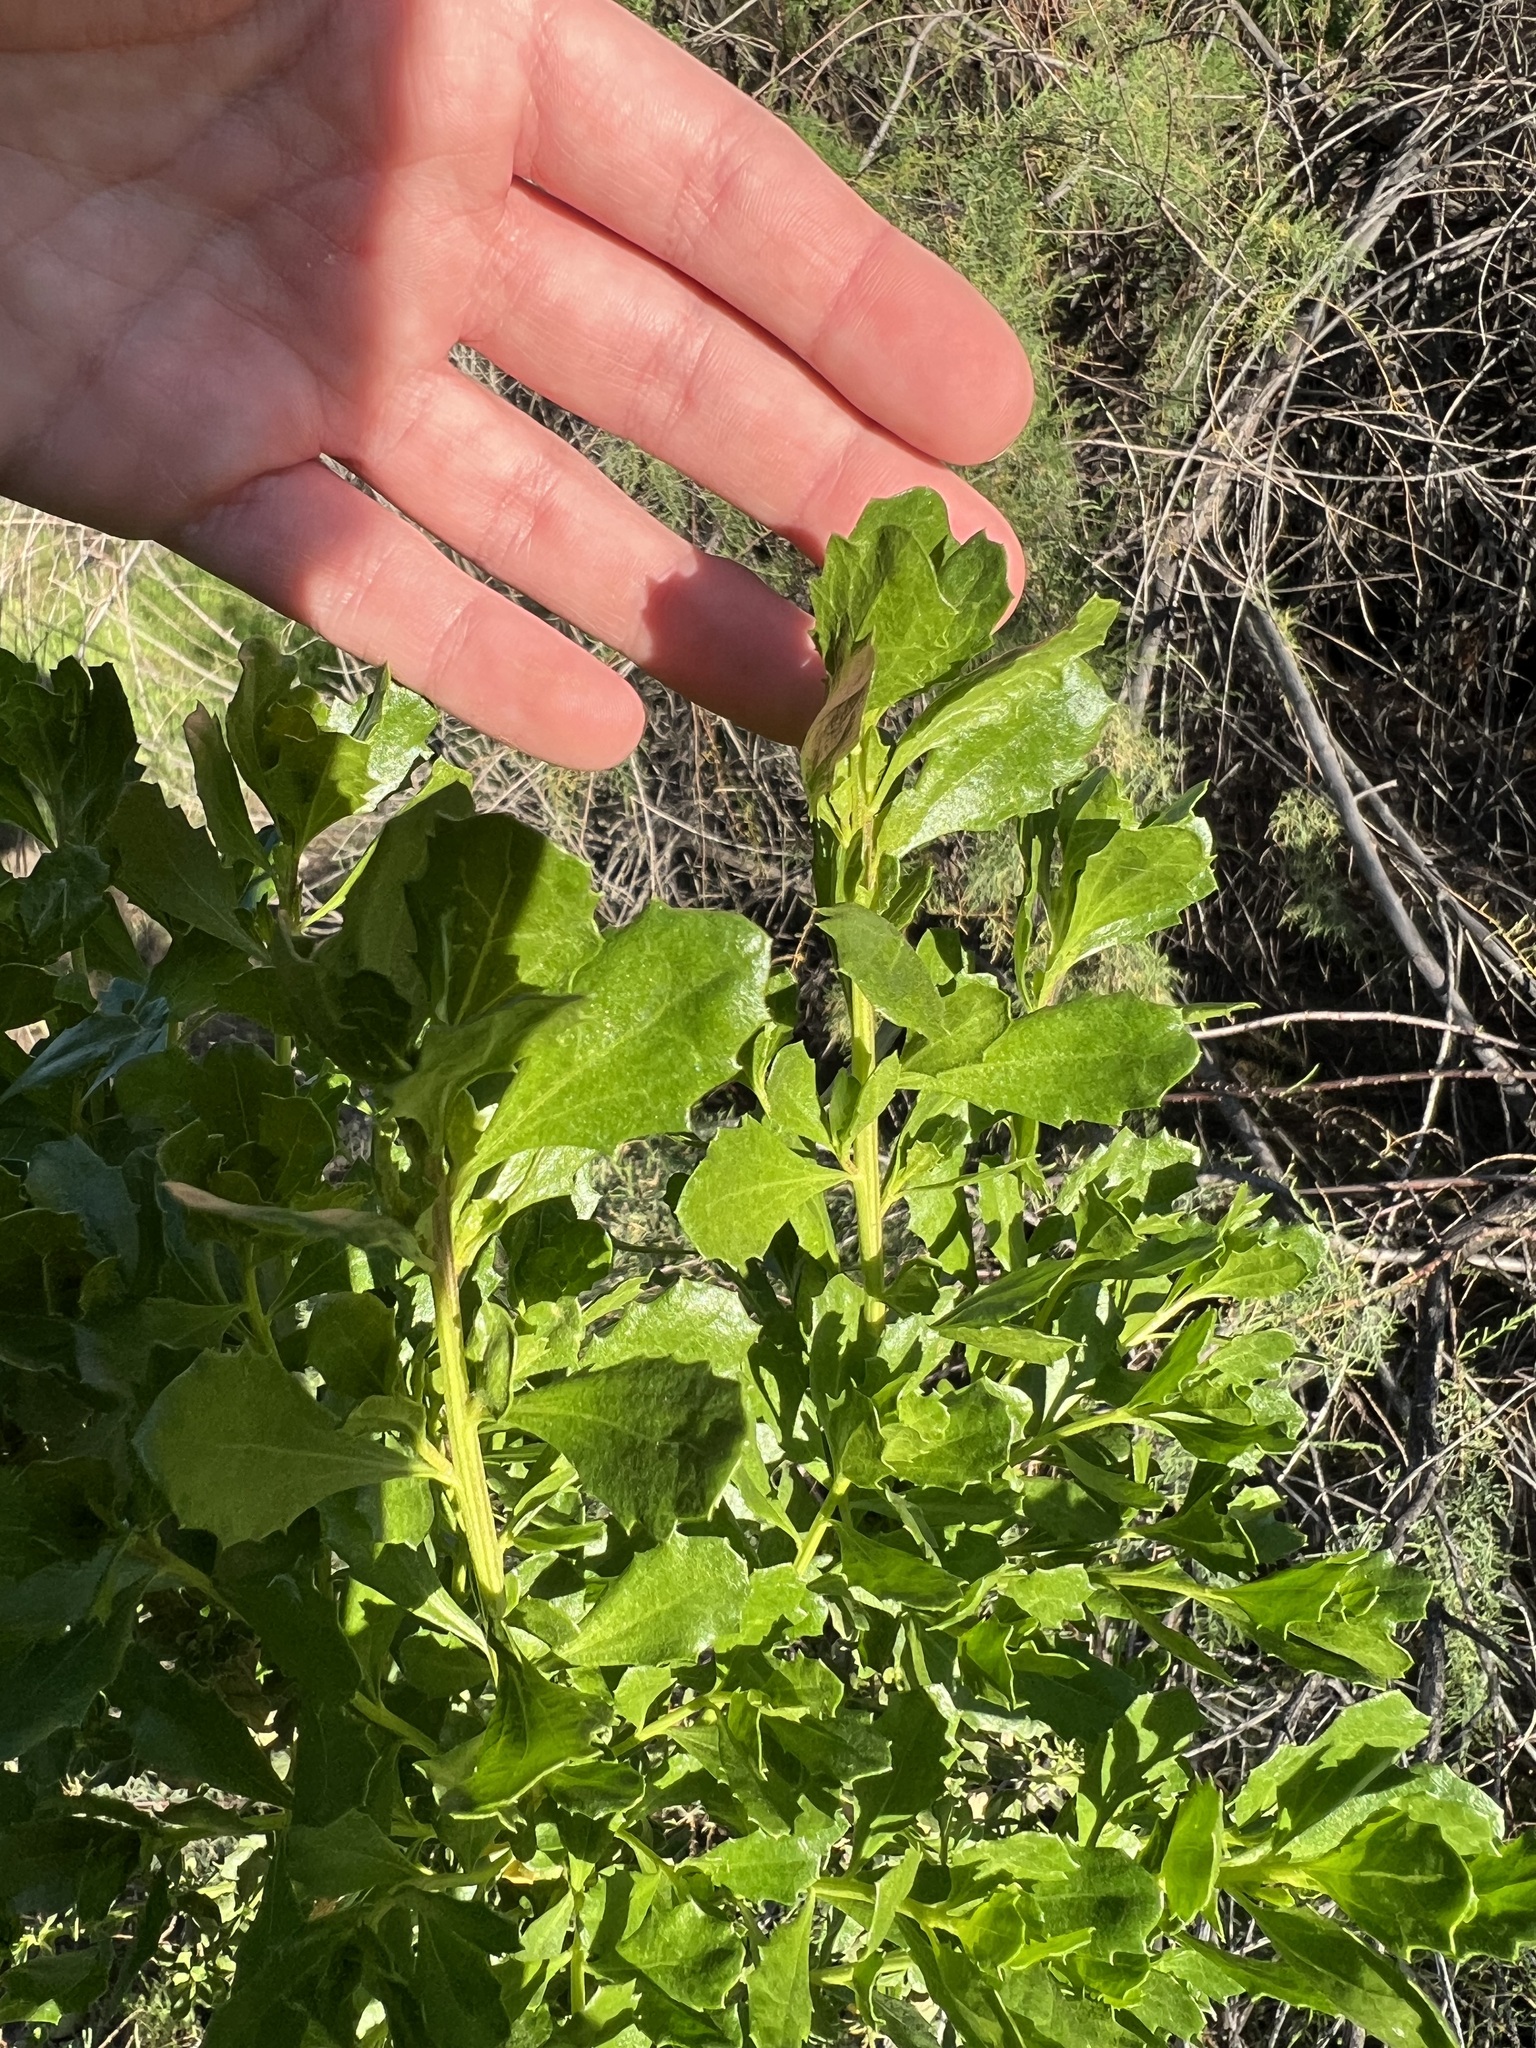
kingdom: Plantae
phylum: Tracheophyta
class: Magnoliopsida
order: Asterales
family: Asteraceae
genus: Baccharis
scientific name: Baccharis pilularis
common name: Coyotebrush
